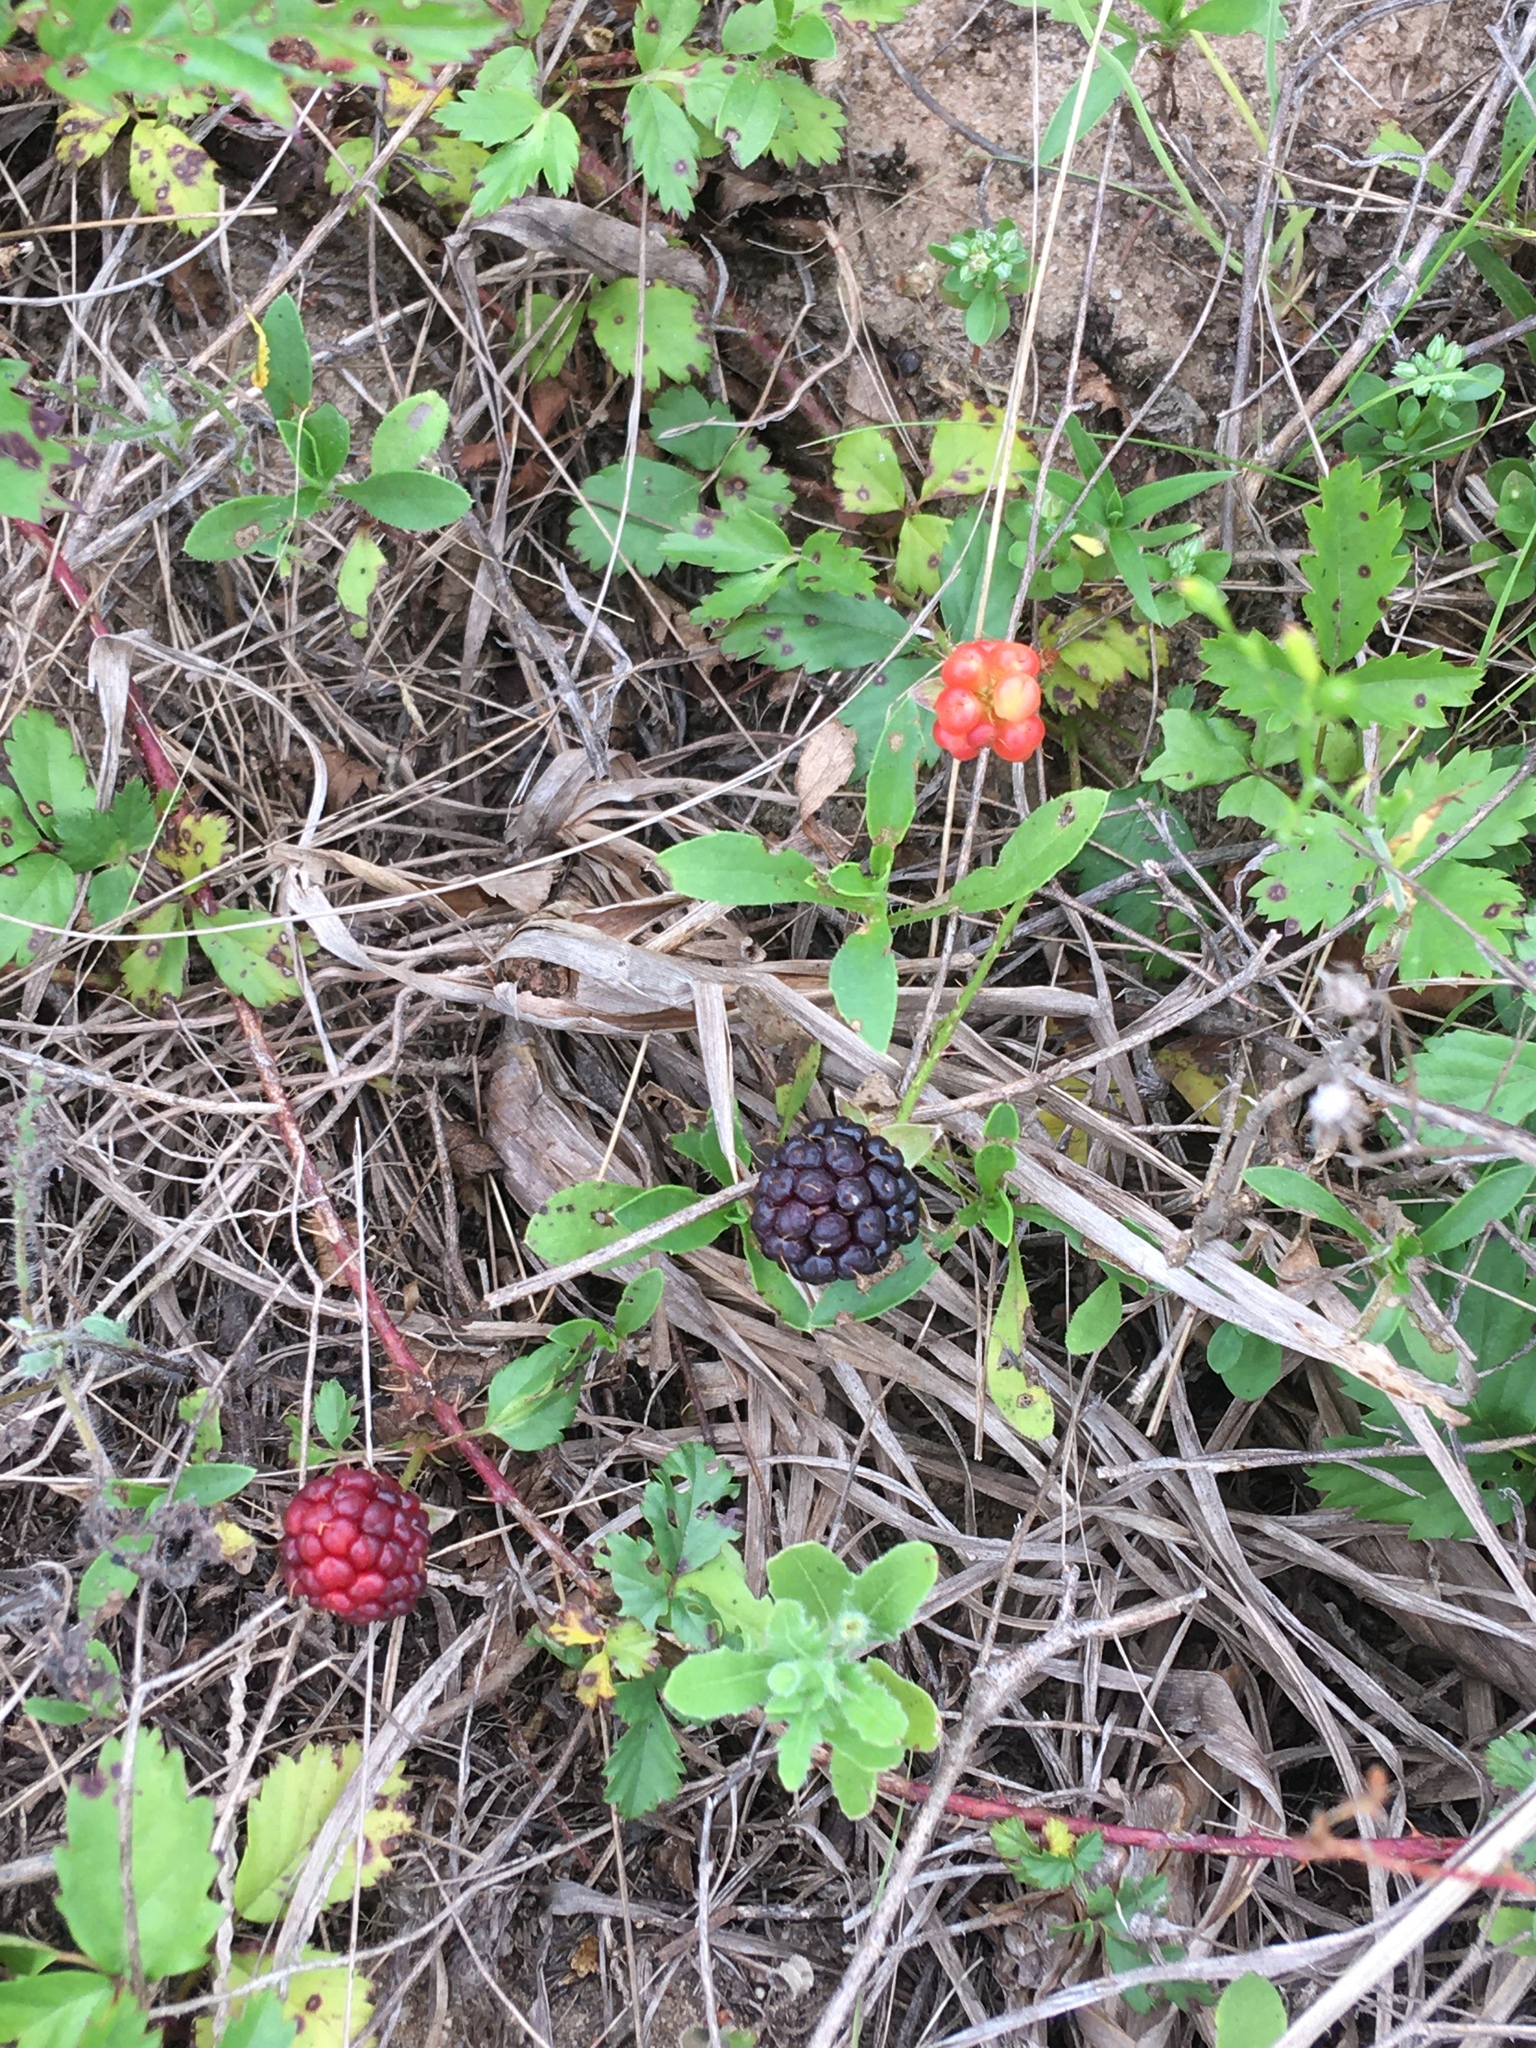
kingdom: Plantae
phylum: Tracheophyta
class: Magnoliopsida
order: Rosales
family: Rosaceae
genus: Rubus
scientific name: Rubus trivialis
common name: Southern dewberry
